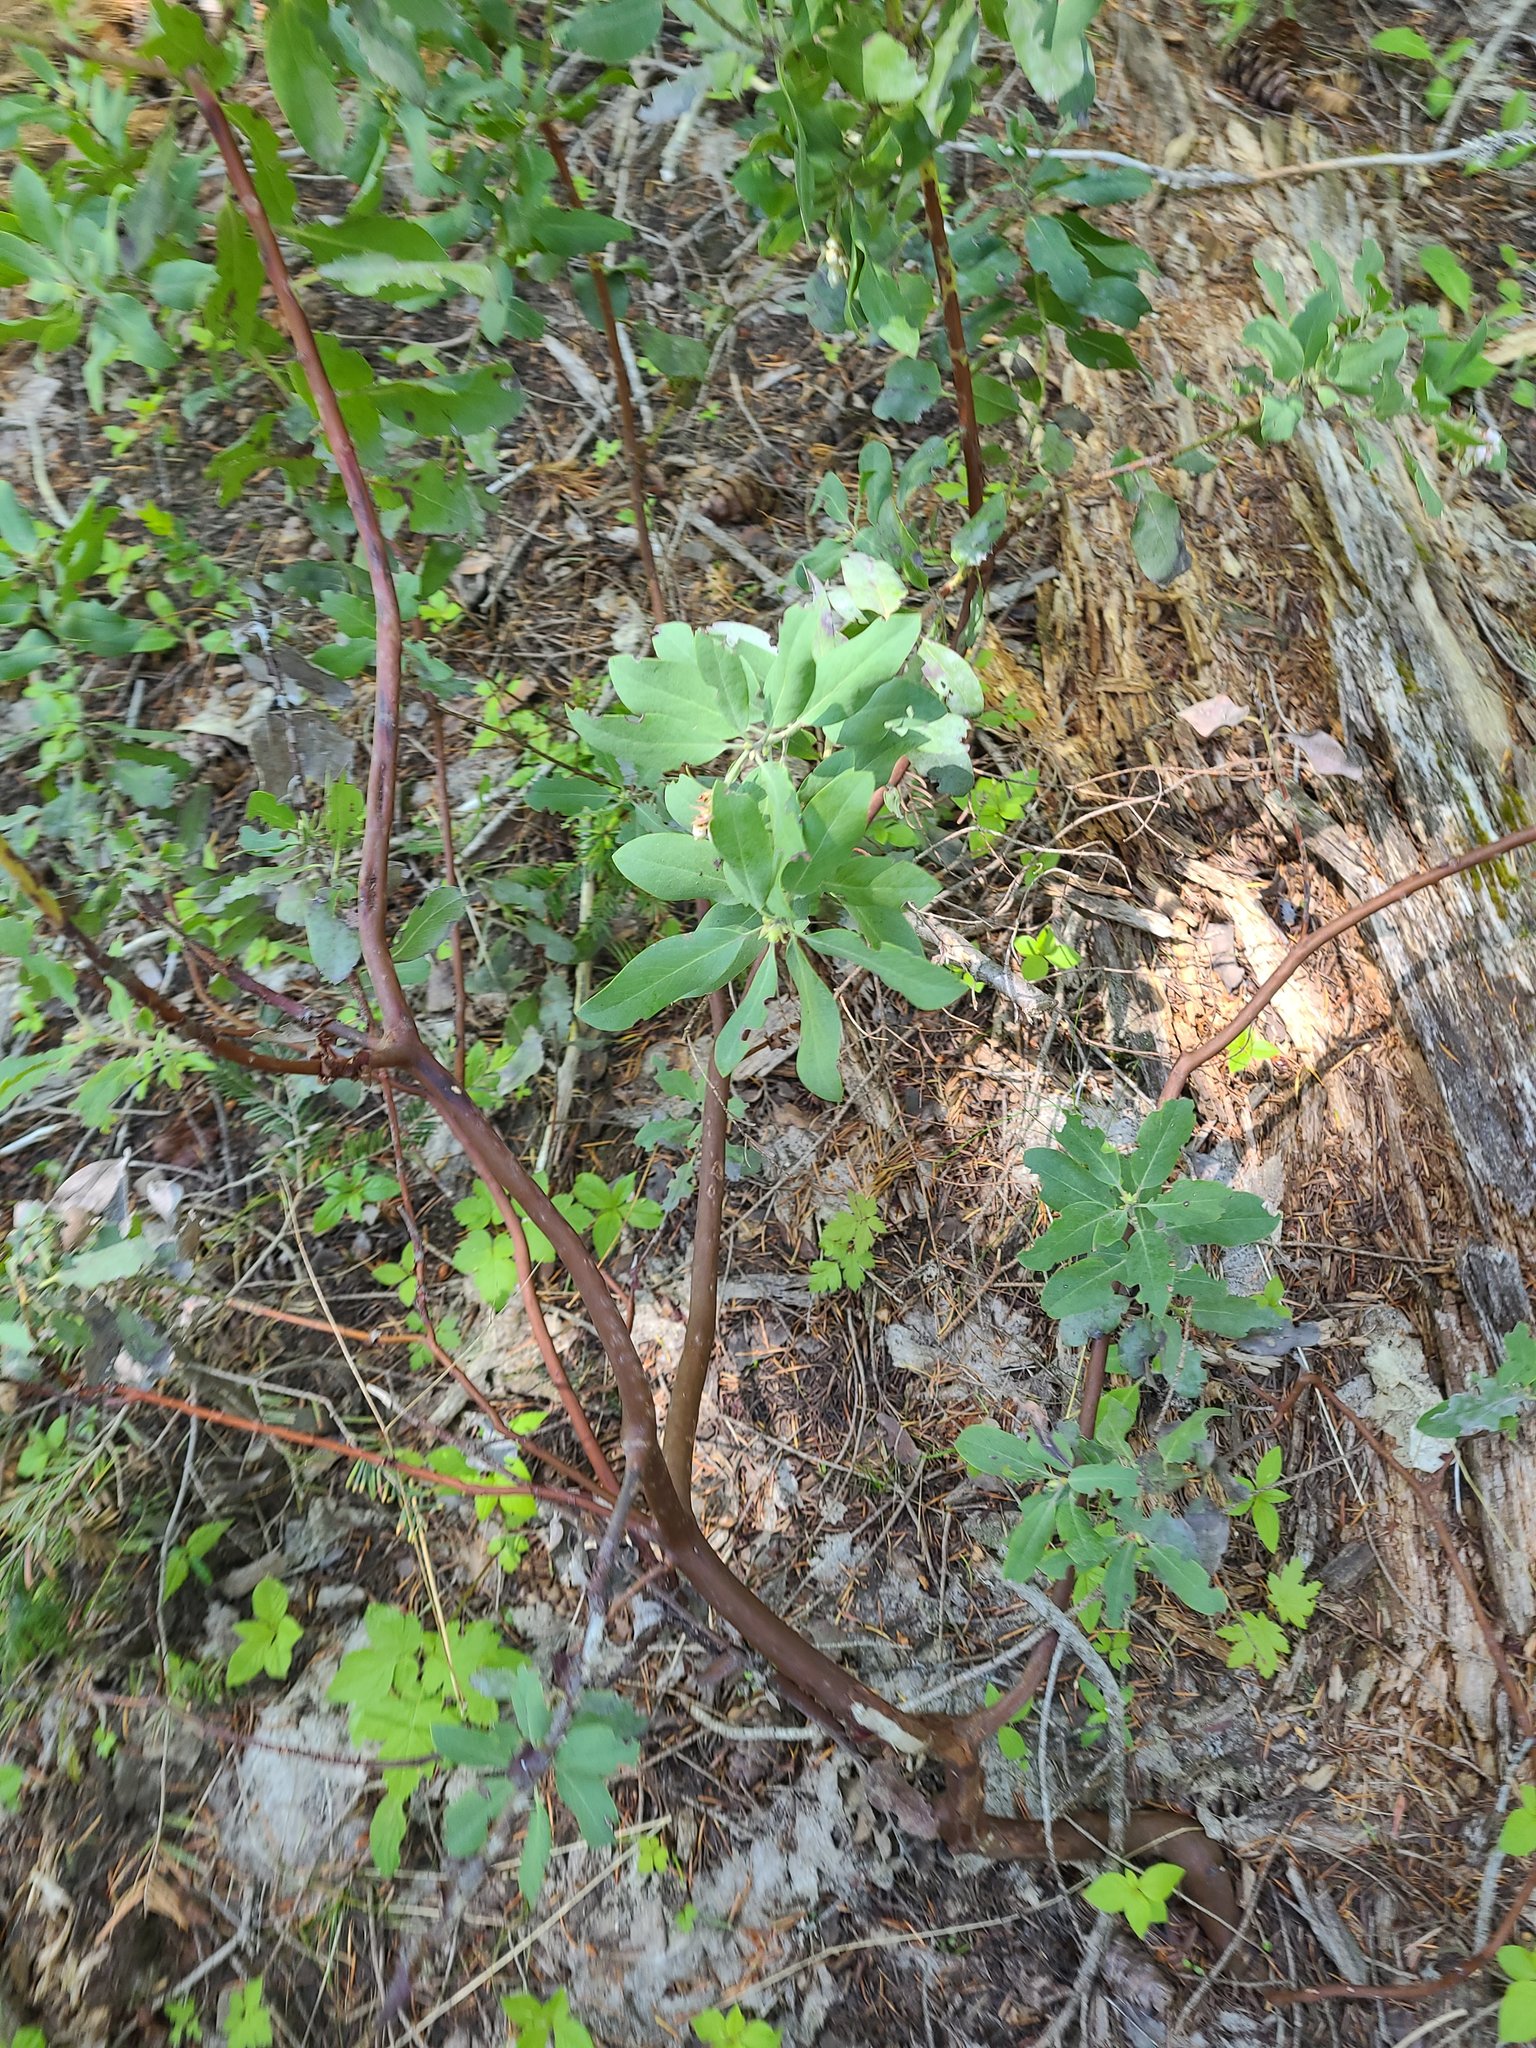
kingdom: Plantae
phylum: Tracheophyta
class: Magnoliopsida
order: Ericales
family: Ericaceae
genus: Arctostaphylos
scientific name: Arctostaphylos columbiana
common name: Bristly bearberry
